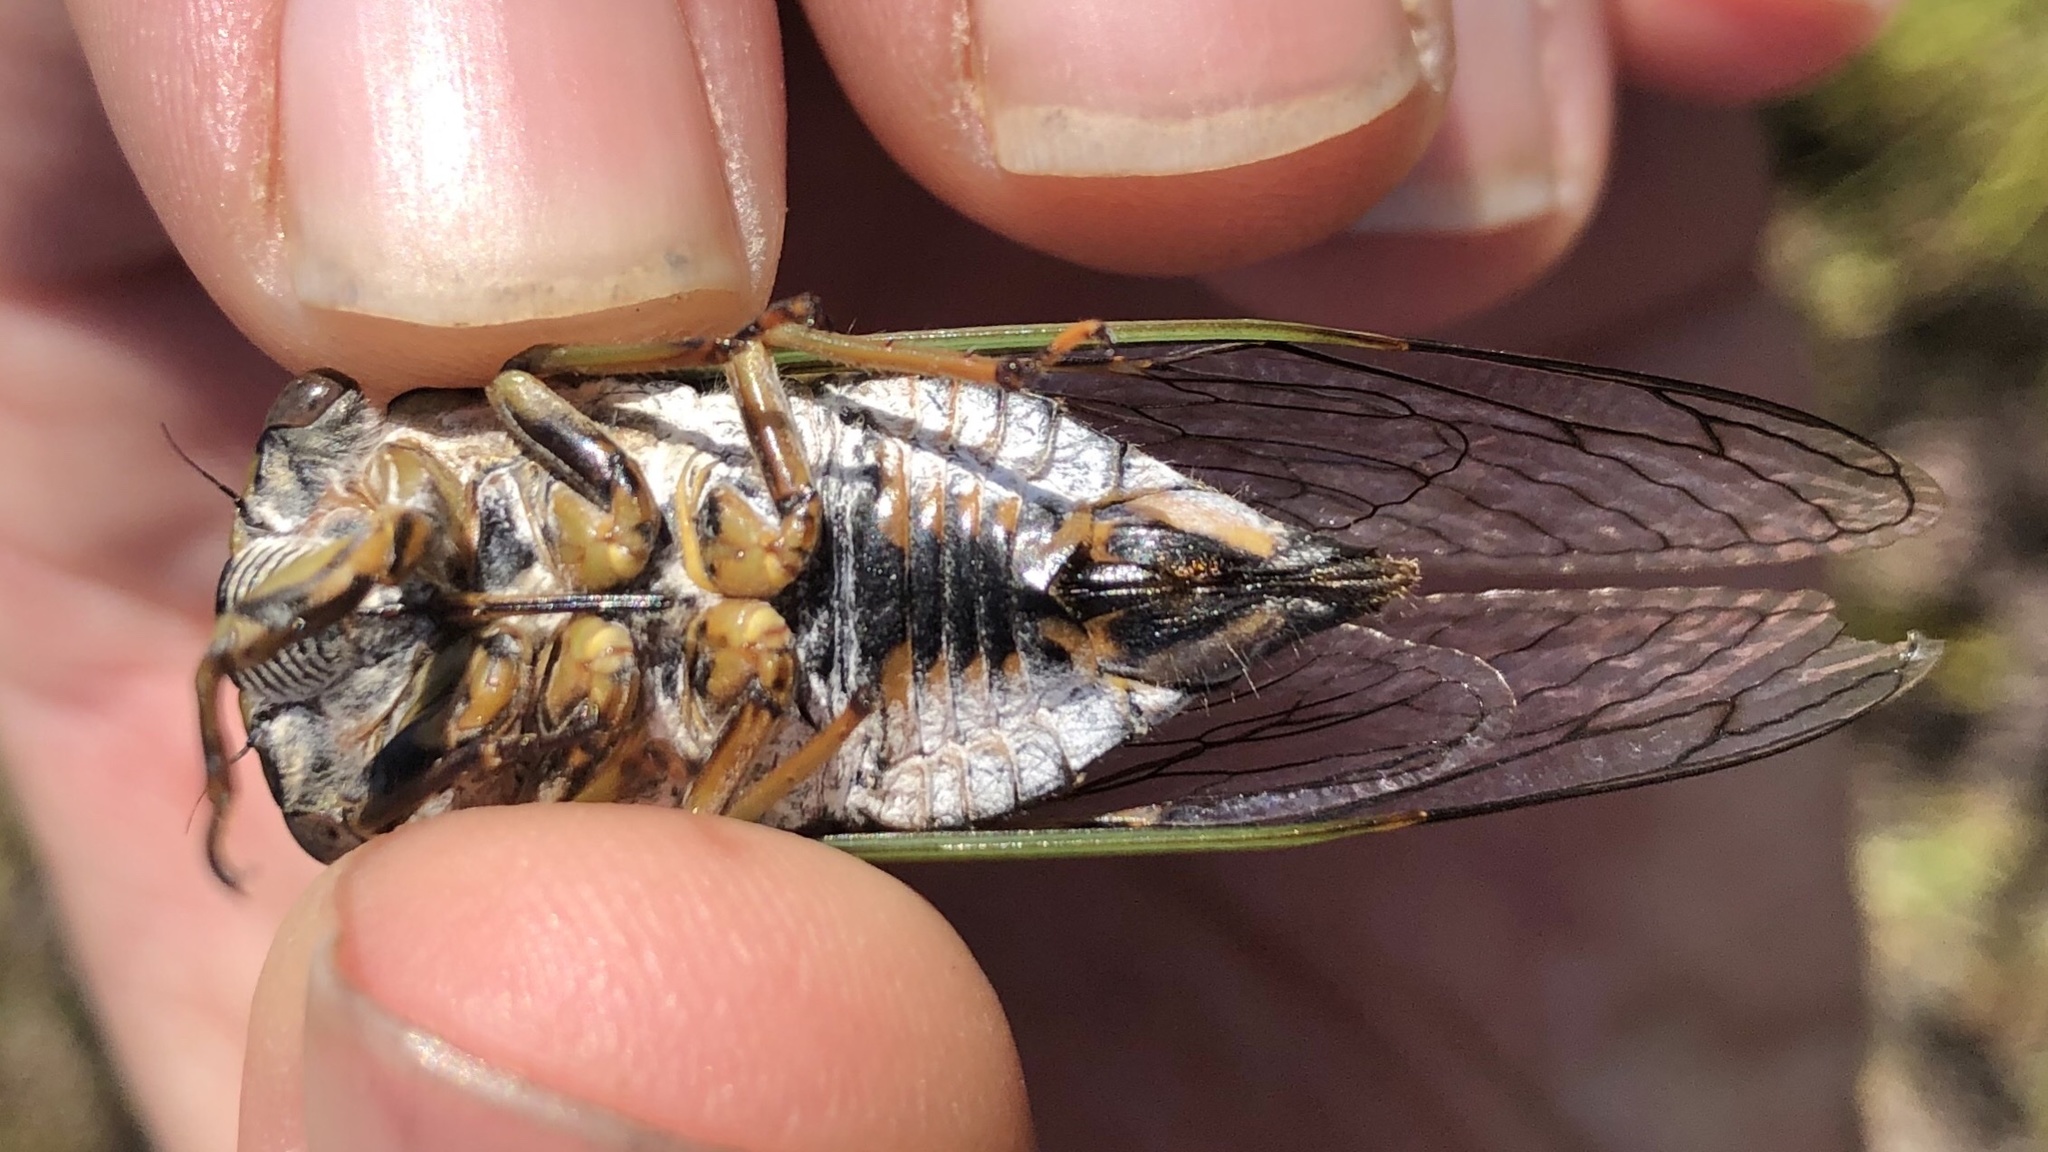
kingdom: Animalia
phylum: Arthropoda
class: Insecta
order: Hemiptera
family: Cicadidae
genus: Neotibicen
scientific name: Neotibicen canicularis
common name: God-day cicada
